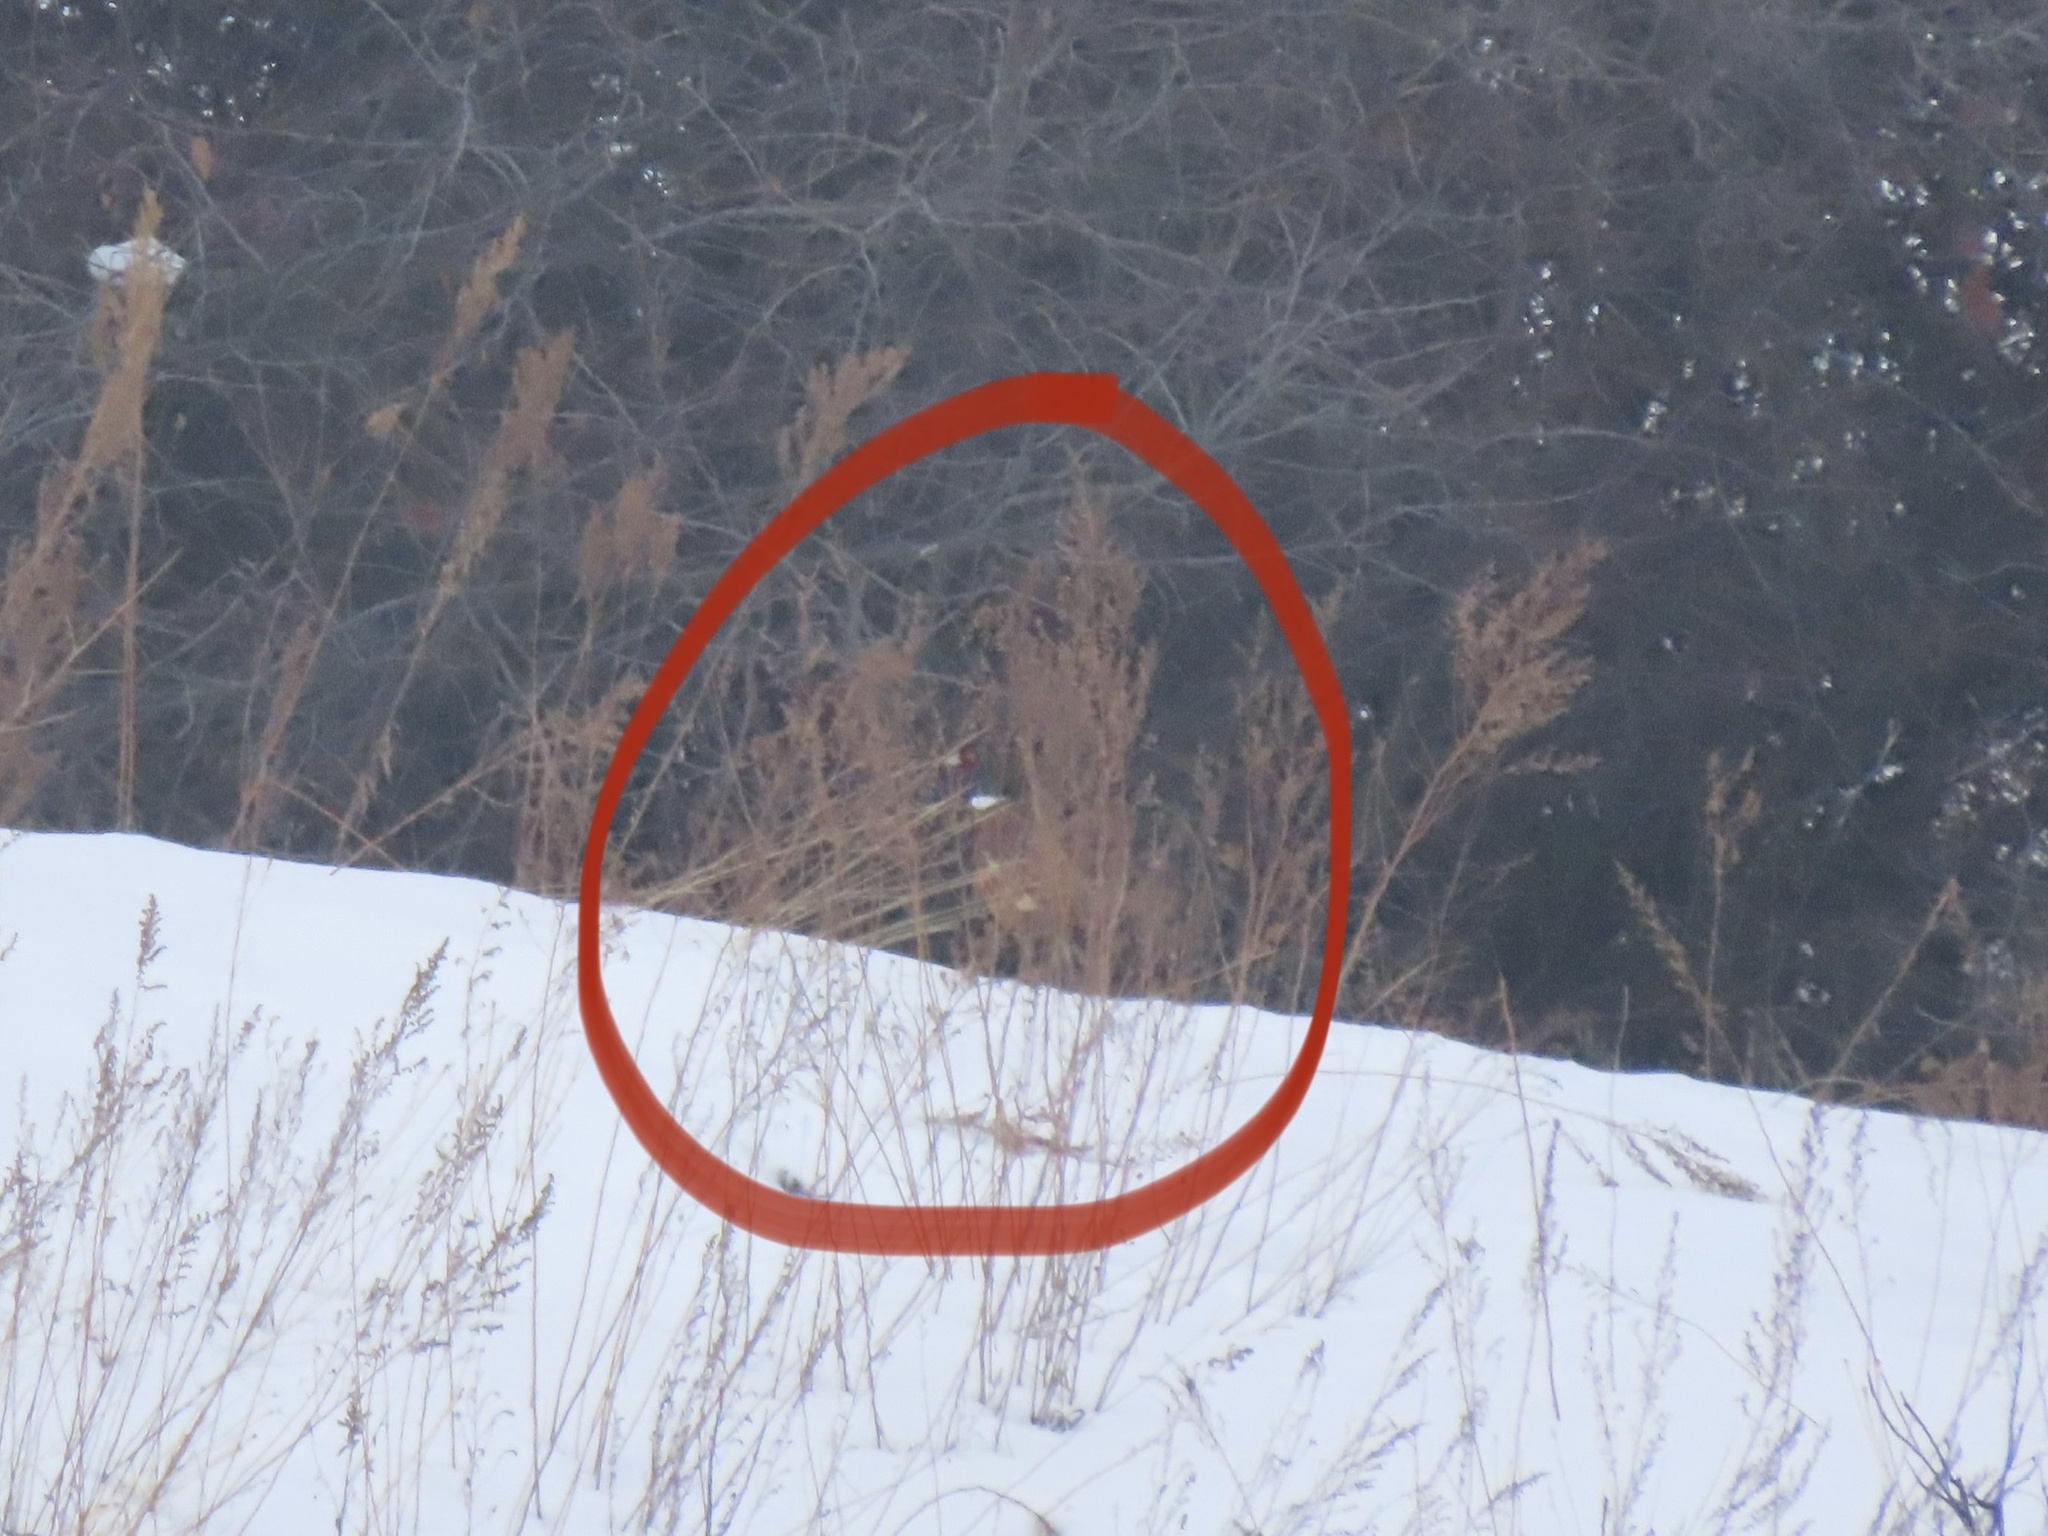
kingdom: Animalia
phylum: Chordata
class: Aves
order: Galliformes
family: Phasianidae
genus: Phasianus
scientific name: Phasianus colchicus
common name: Common pheasant
